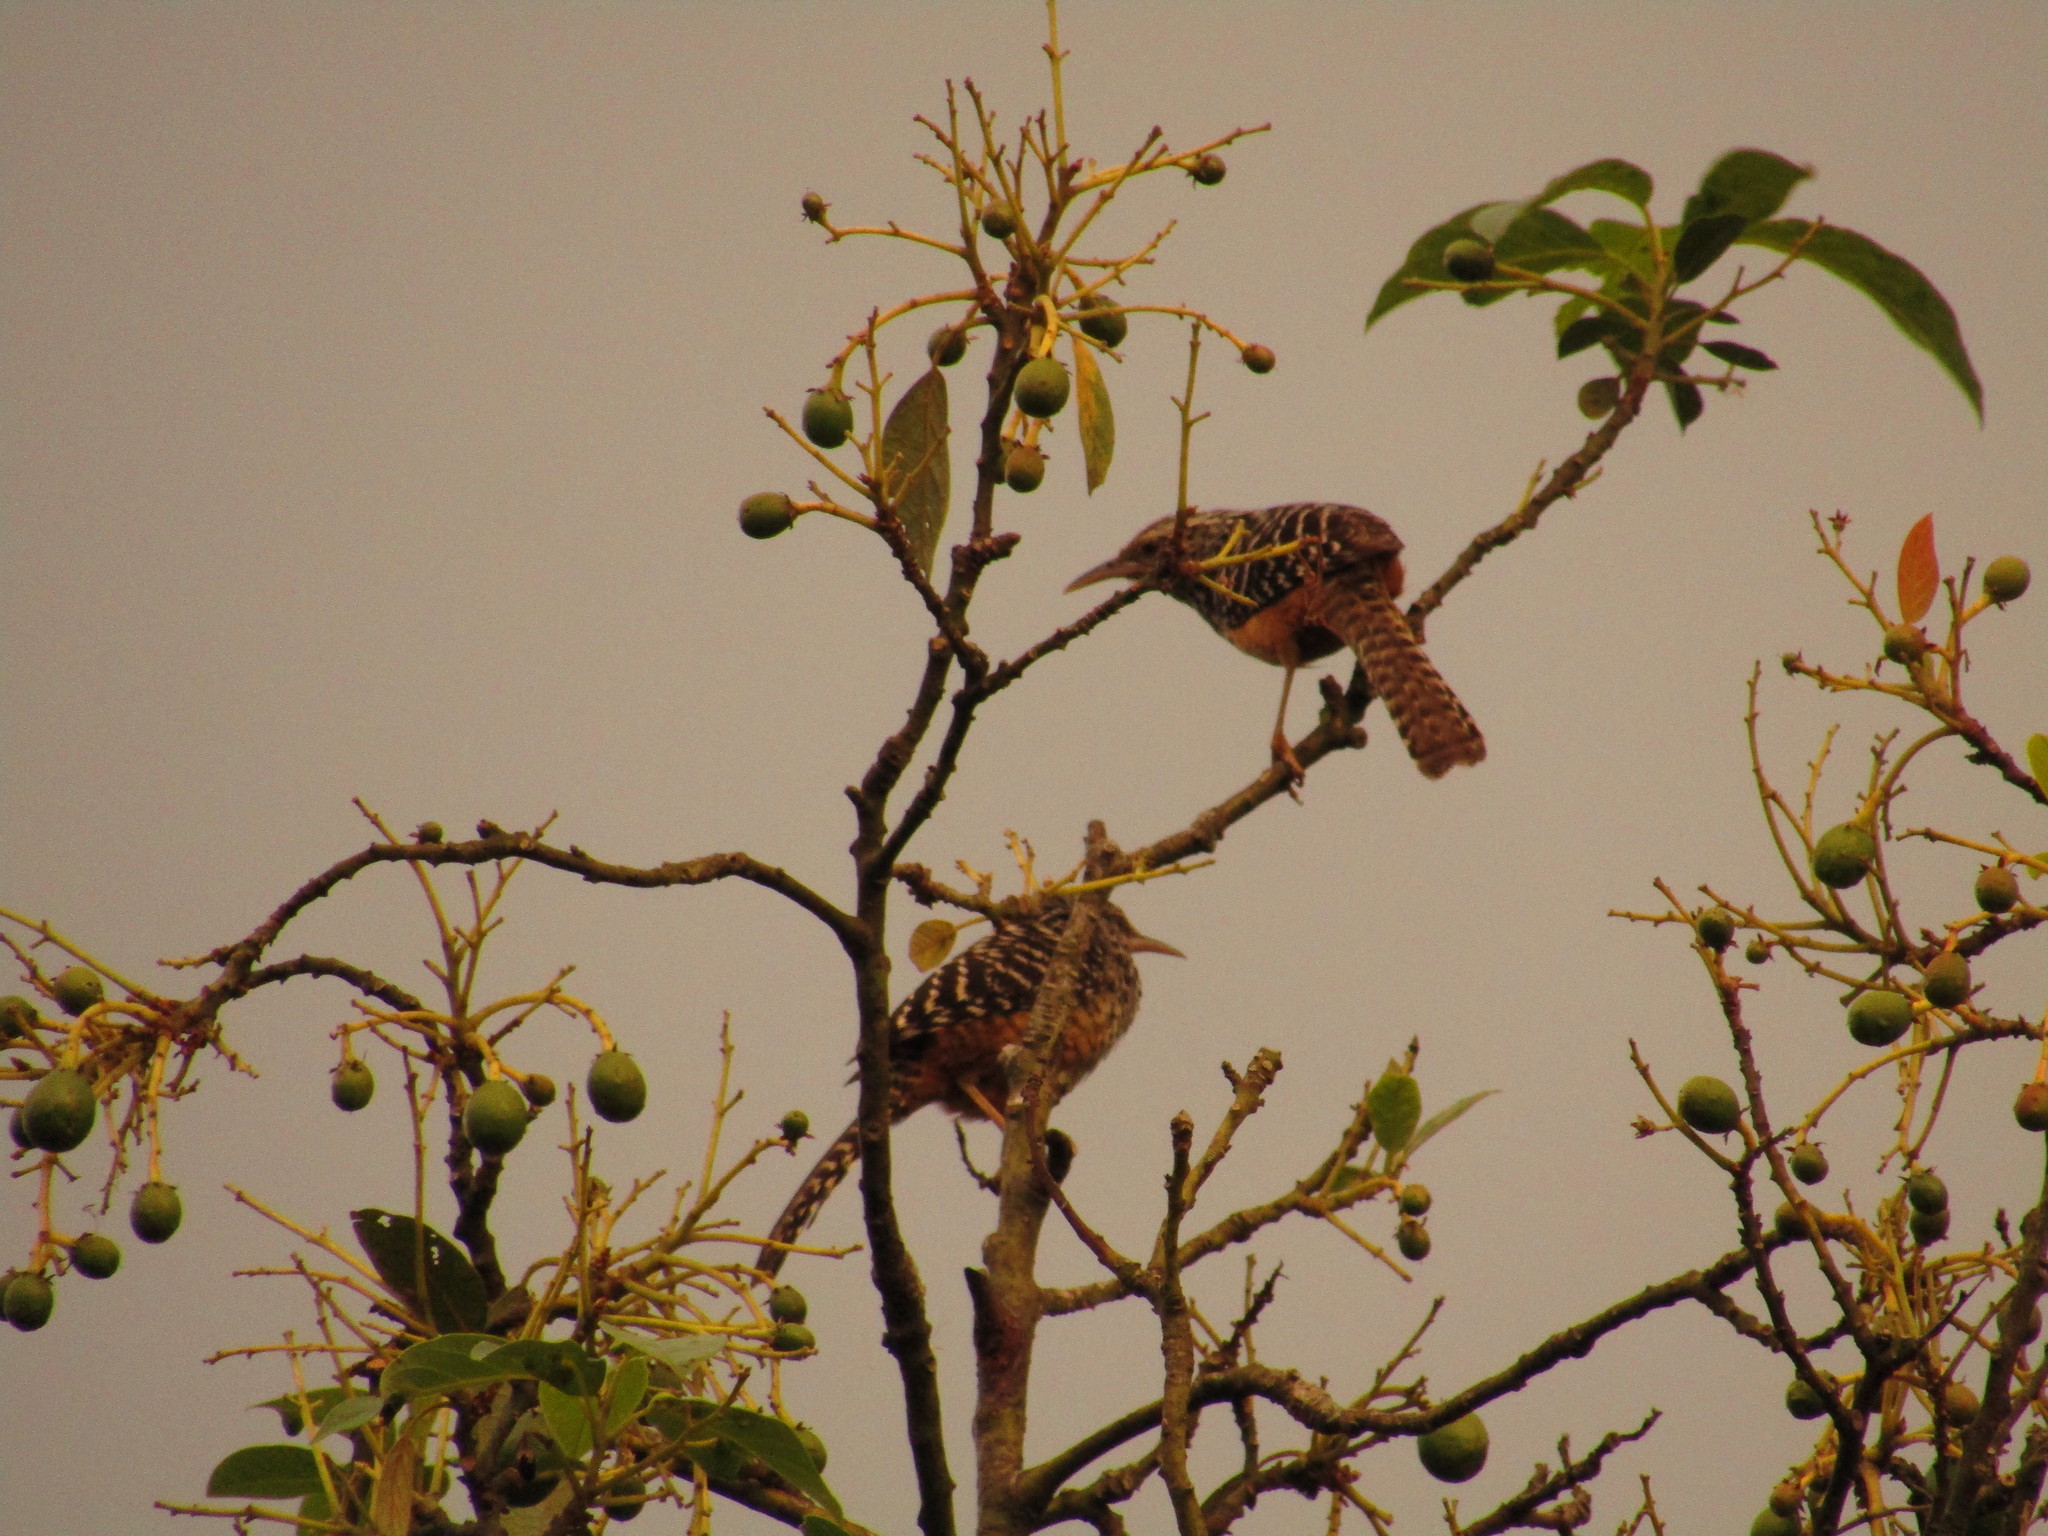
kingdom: Animalia
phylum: Chordata
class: Aves
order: Passeriformes
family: Troglodytidae
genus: Campylorhynchus
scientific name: Campylorhynchus zonatus
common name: Band-backed wren
